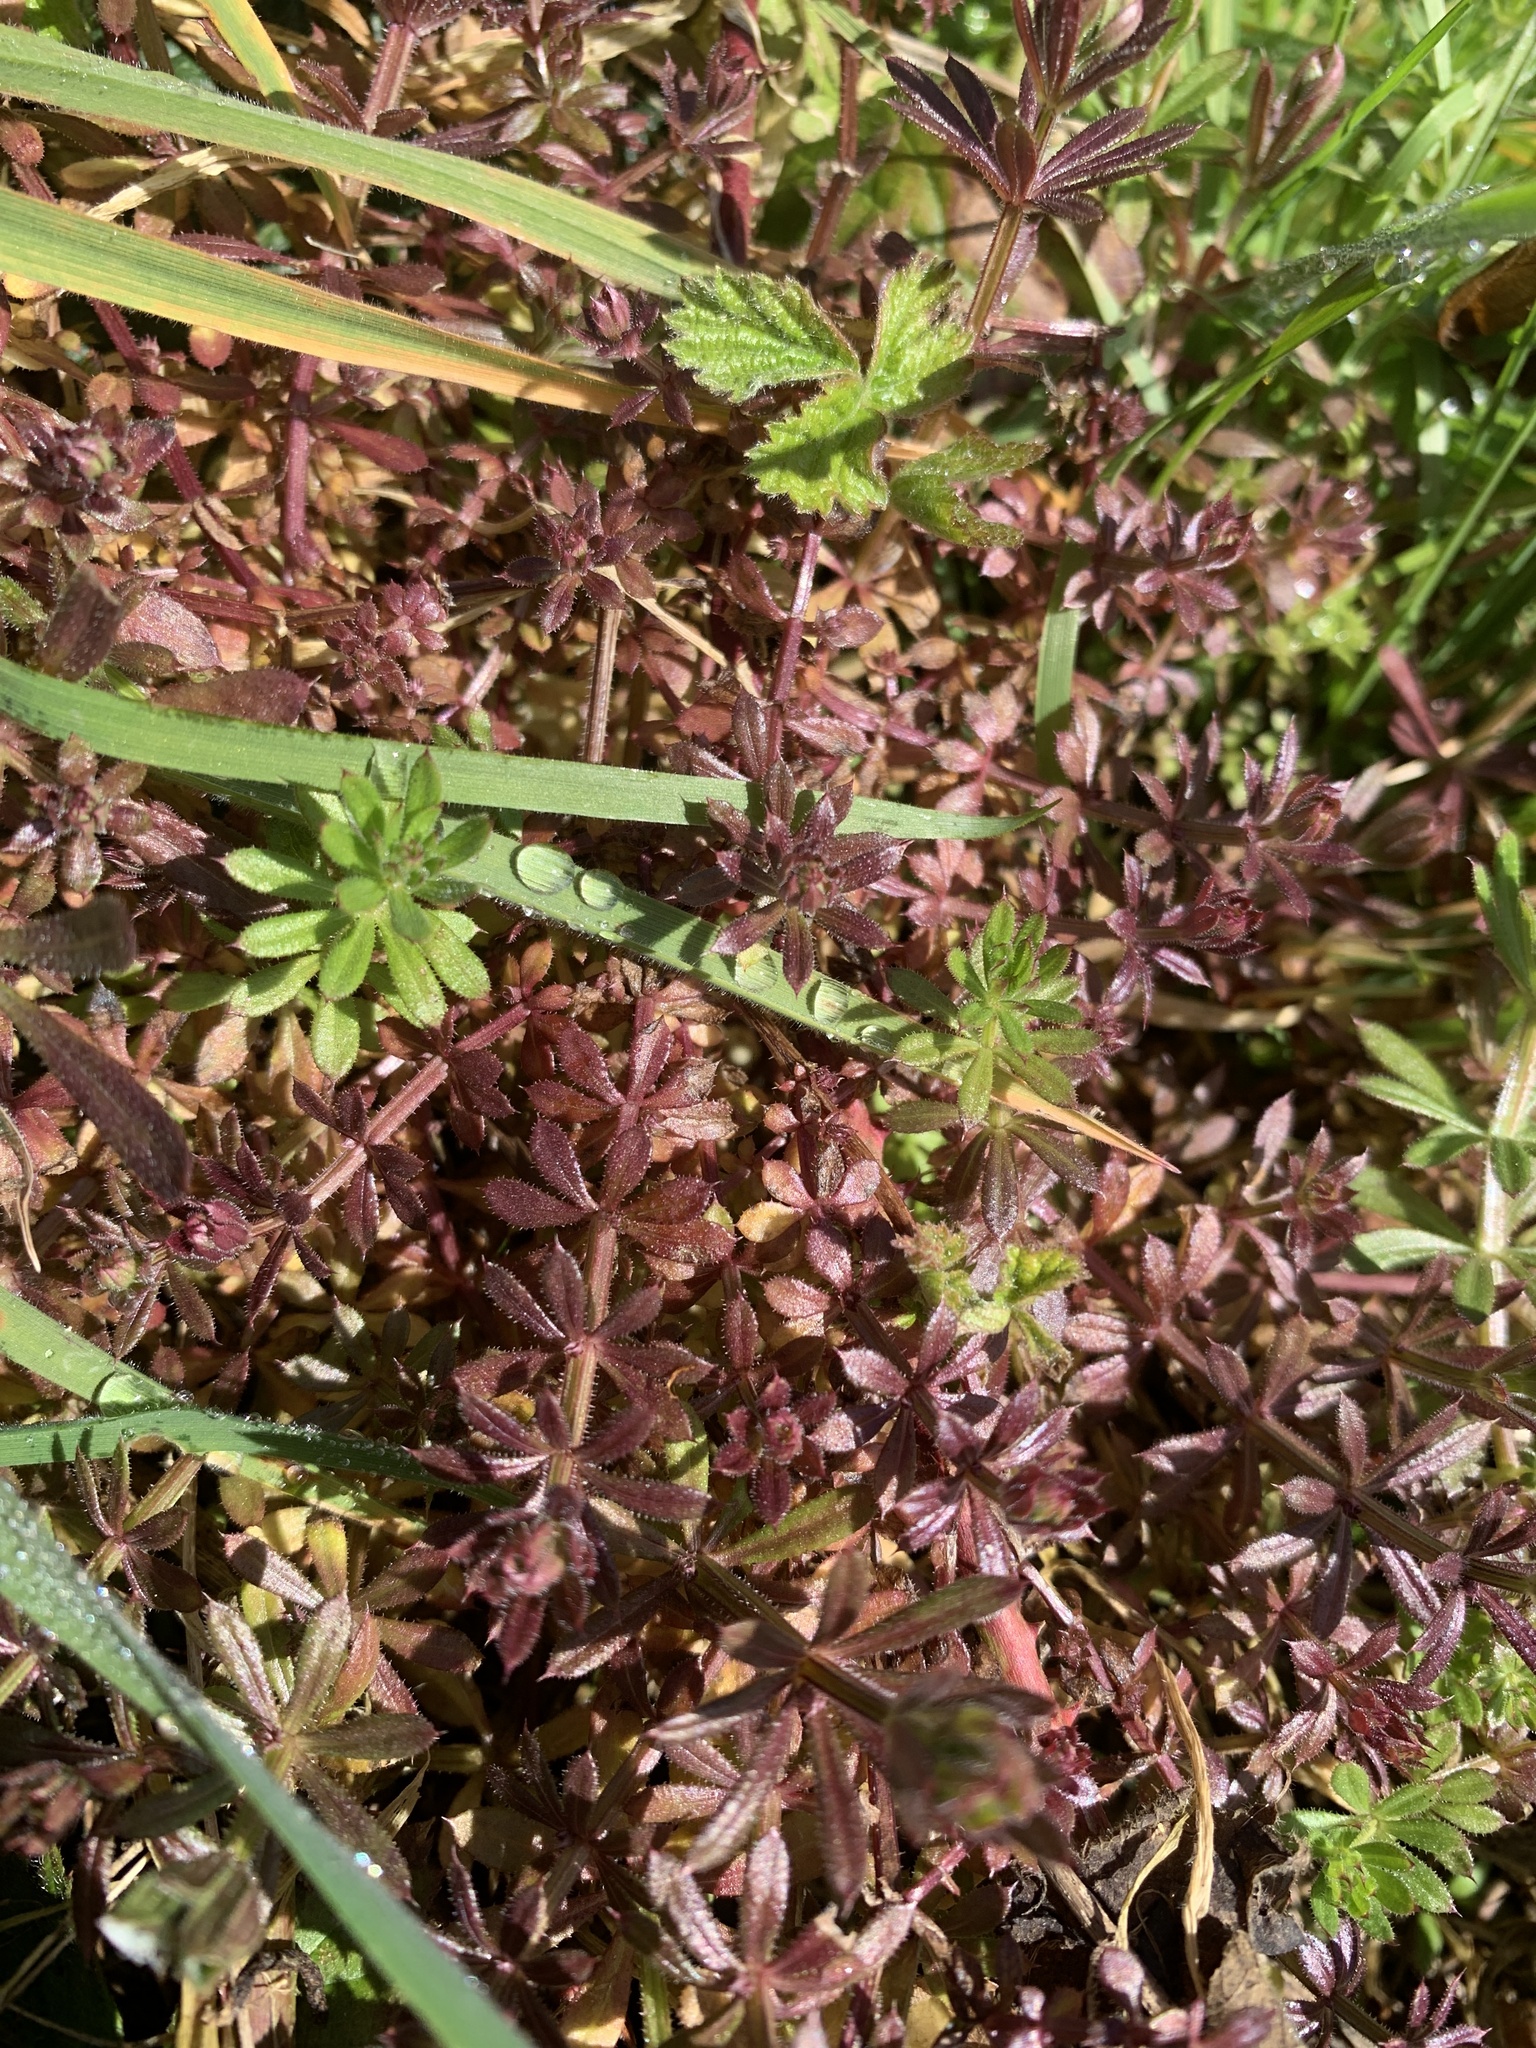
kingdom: Plantae
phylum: Tracheophyta
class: Magnoliopsida
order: Gentianales
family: Rubiaceae
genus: Galium
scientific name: Galium aparine
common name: Cleavers
